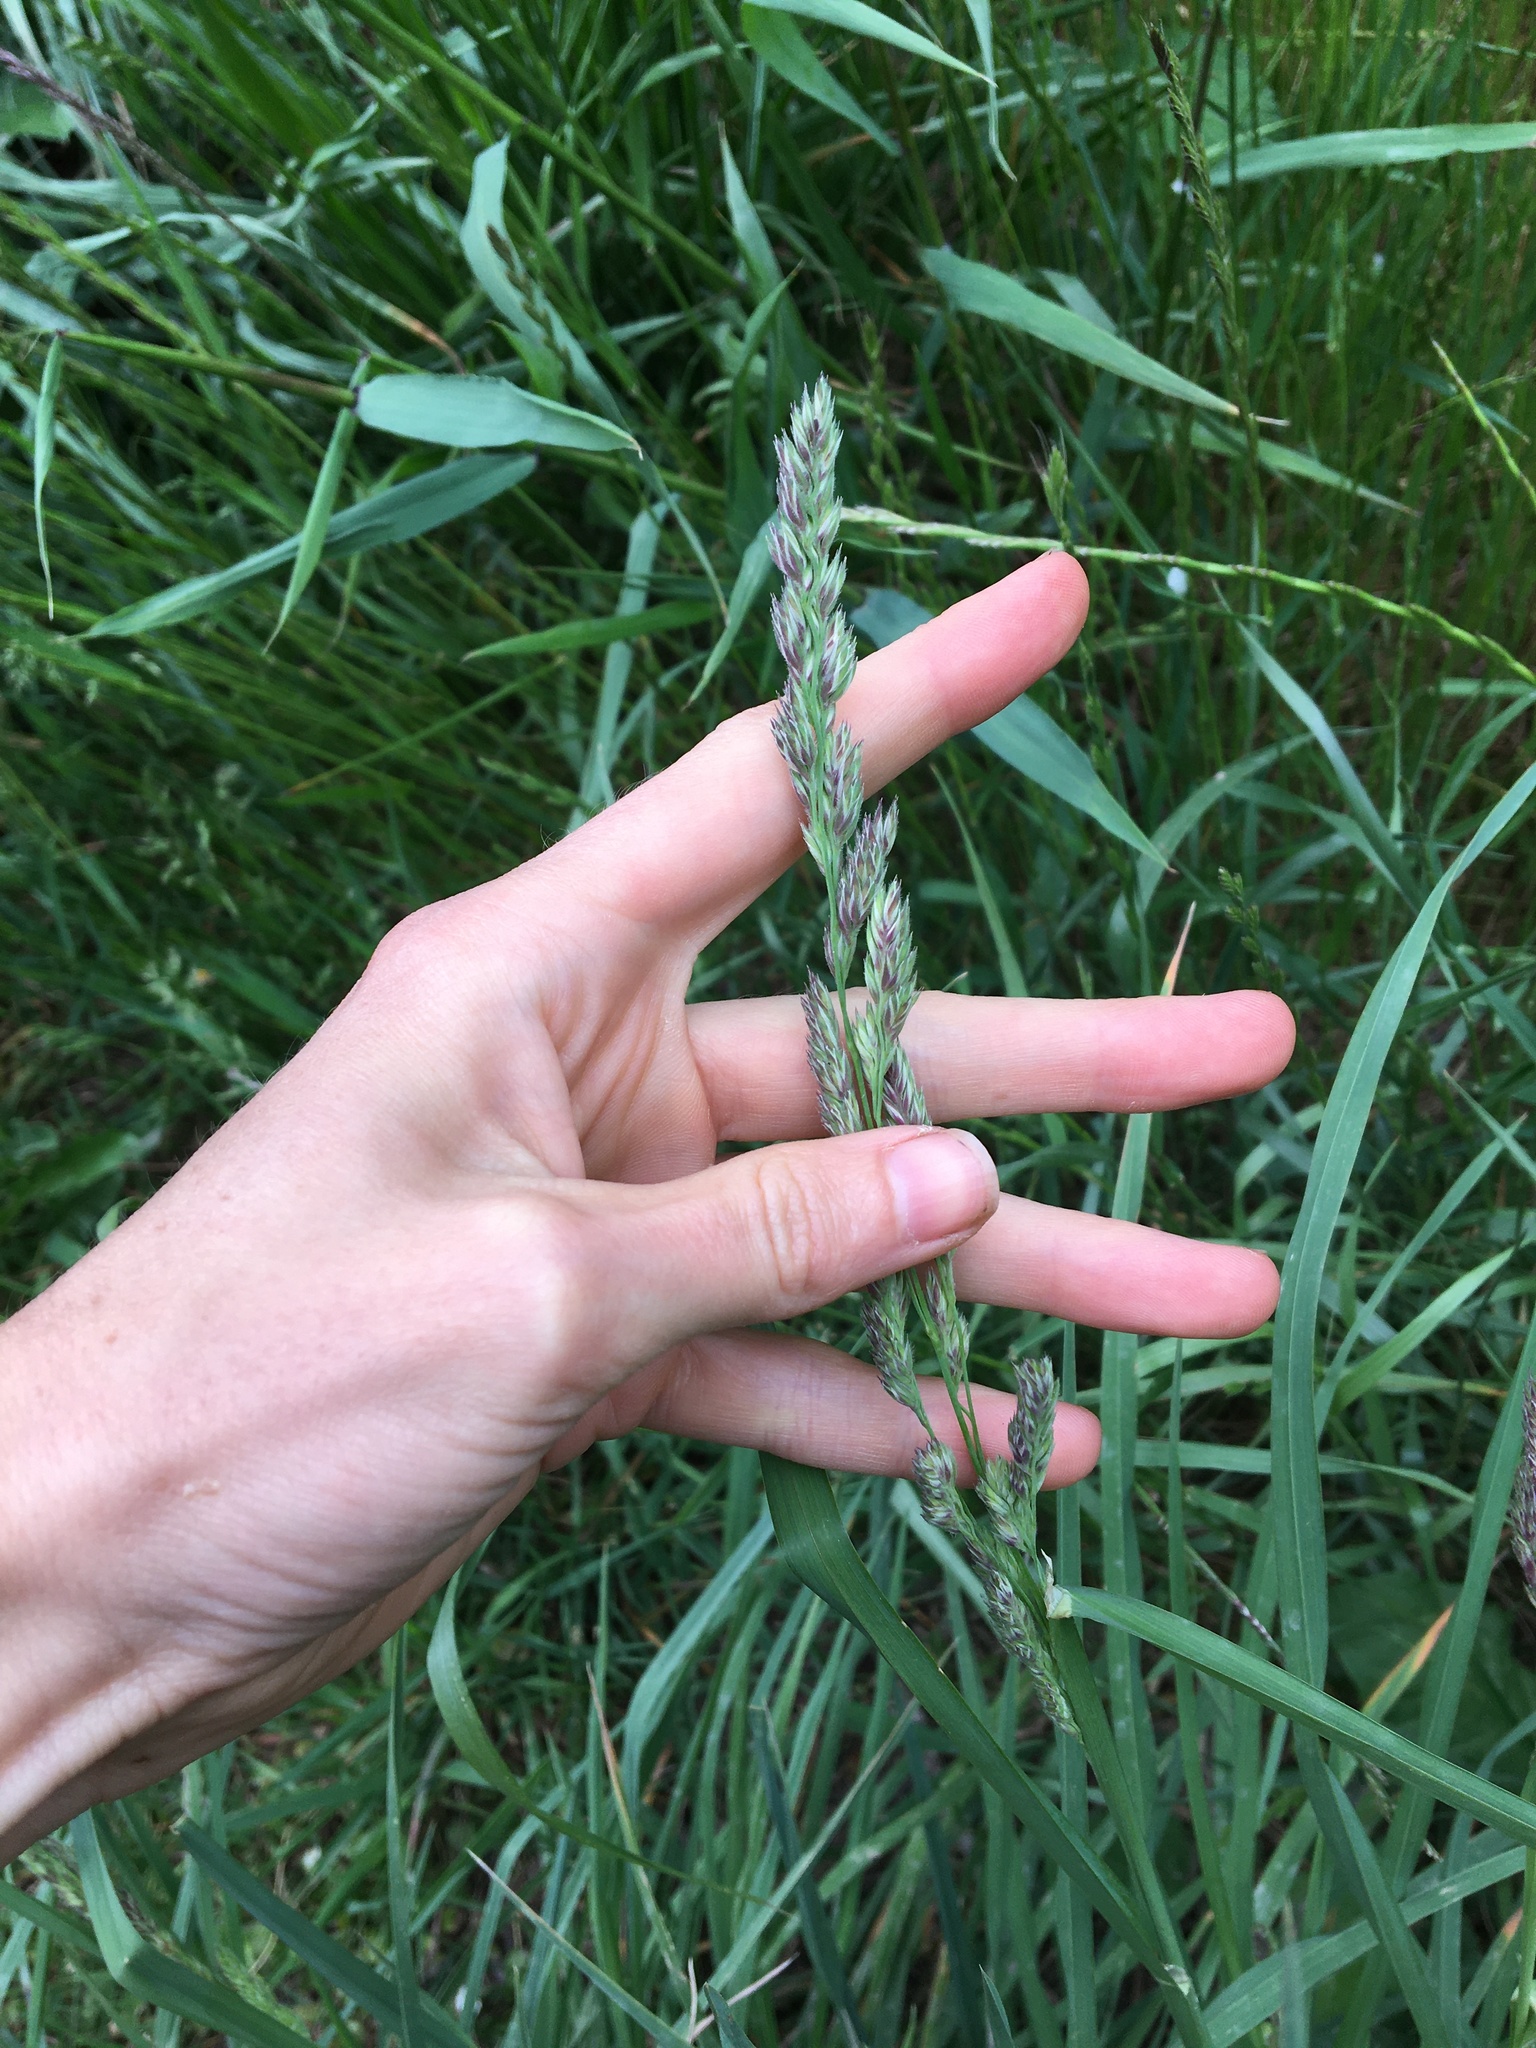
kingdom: Plantae
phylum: Tracheophyta
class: Liliopsida
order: Poales
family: Poaceae
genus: Dactylis
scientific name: Dactylis glomerata
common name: Orchardgrass
